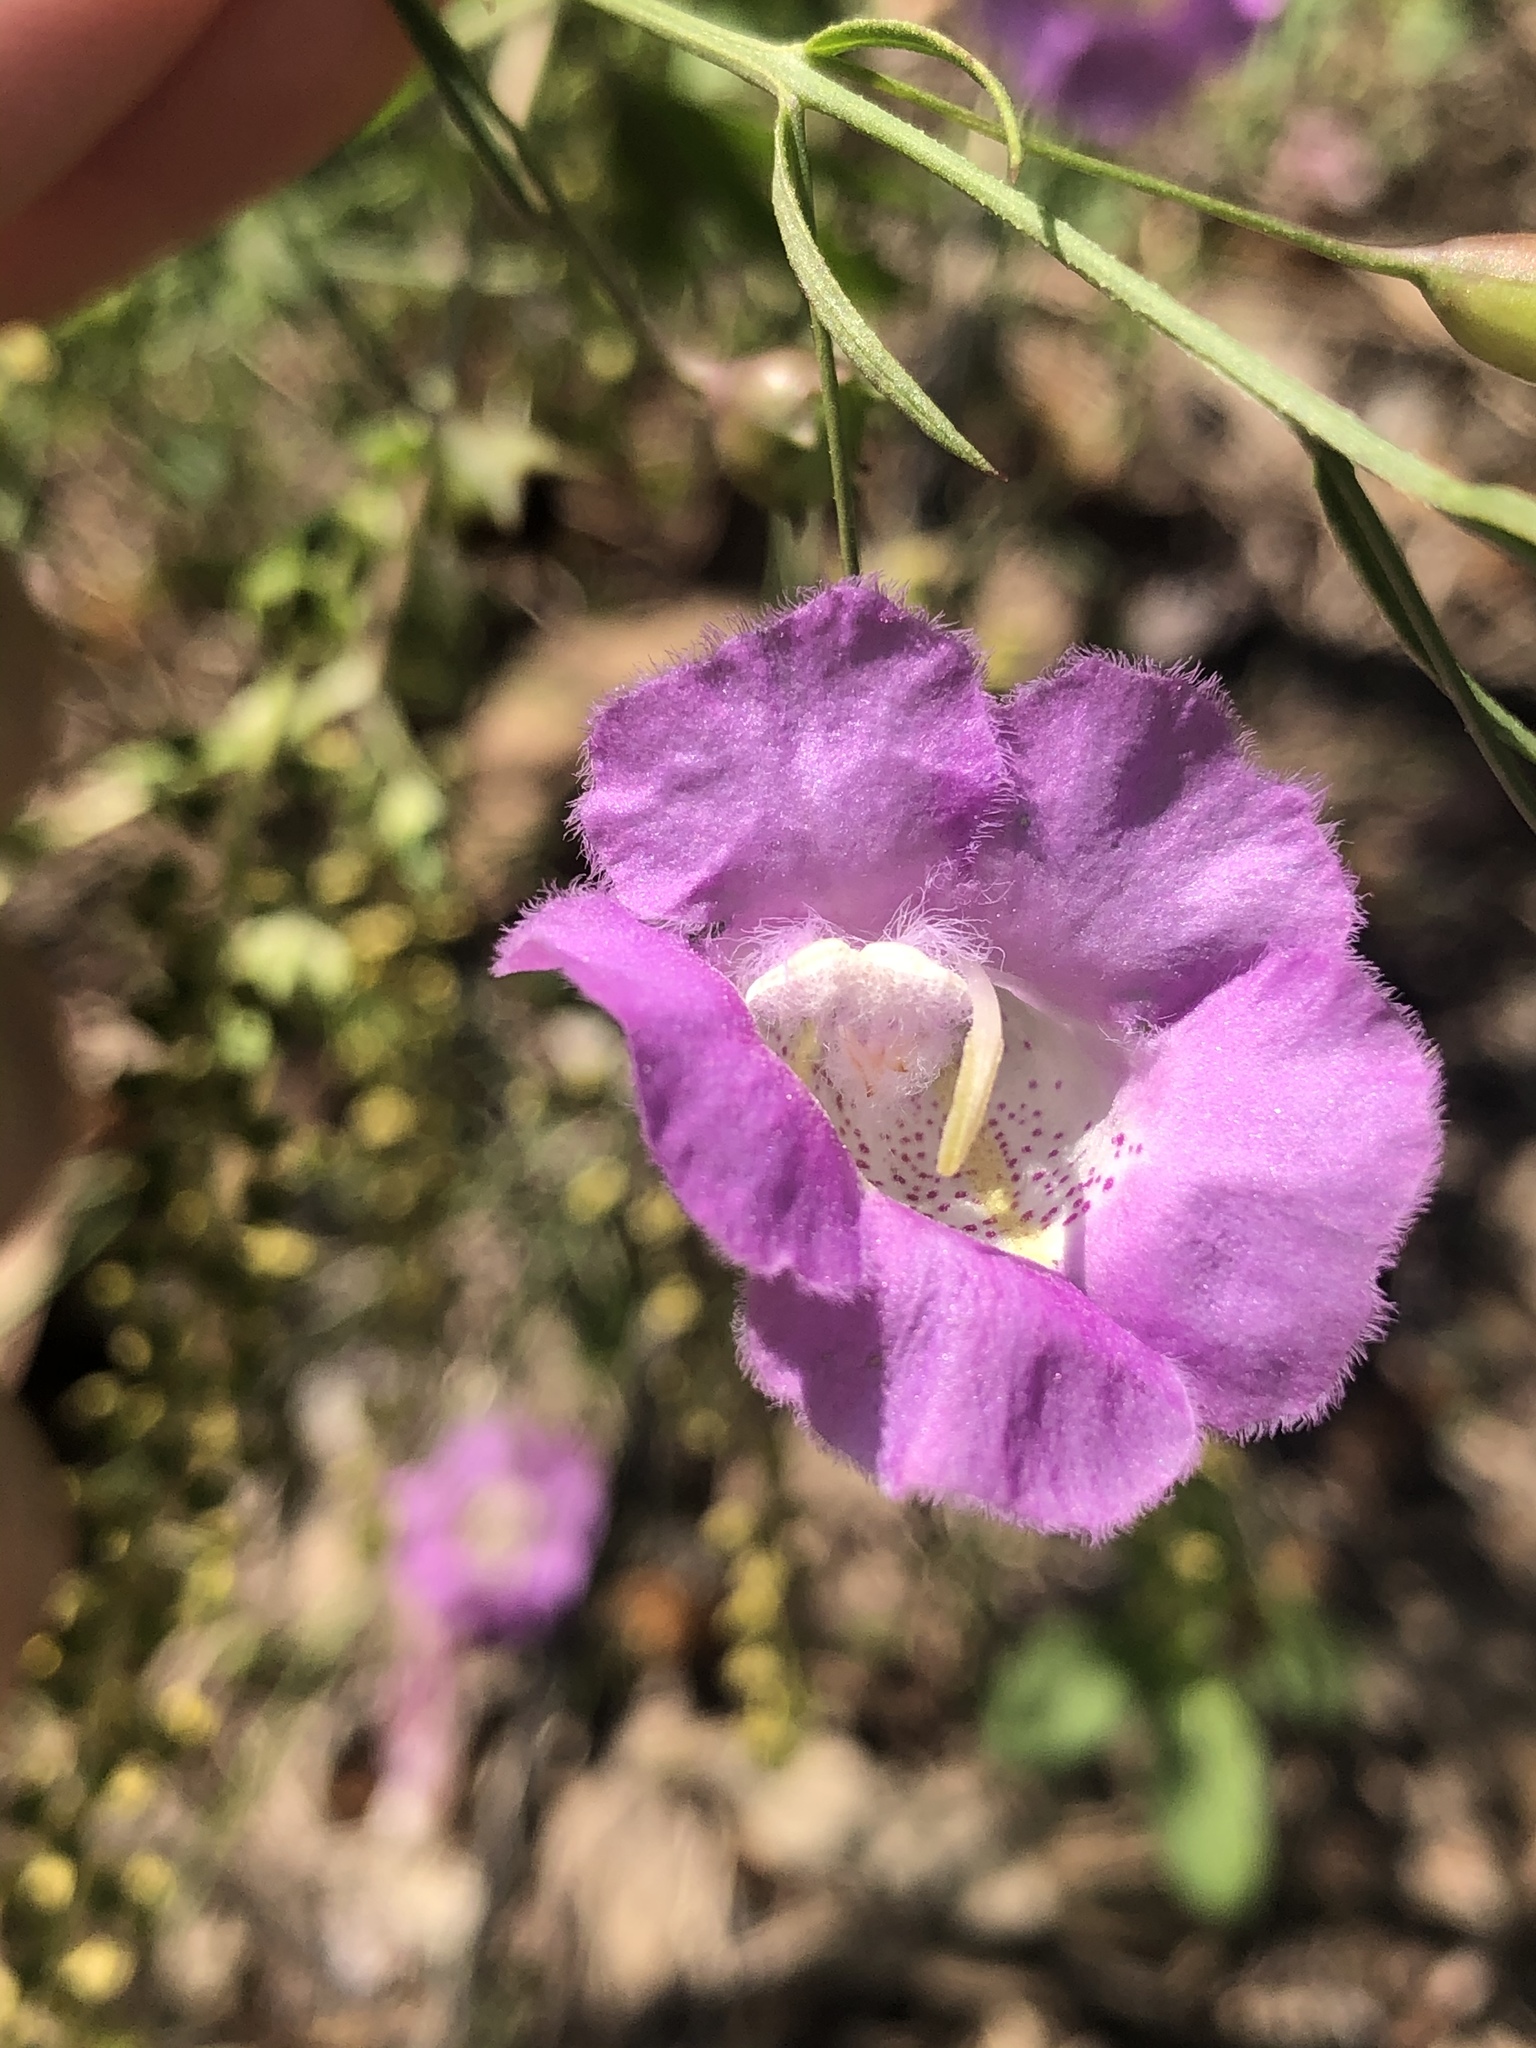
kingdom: Plantae
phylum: Tracheophyta
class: Magnoliopsida
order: Lamiales
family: Orobanchaceae
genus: Agalinis
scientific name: Agalinis strictifolia
